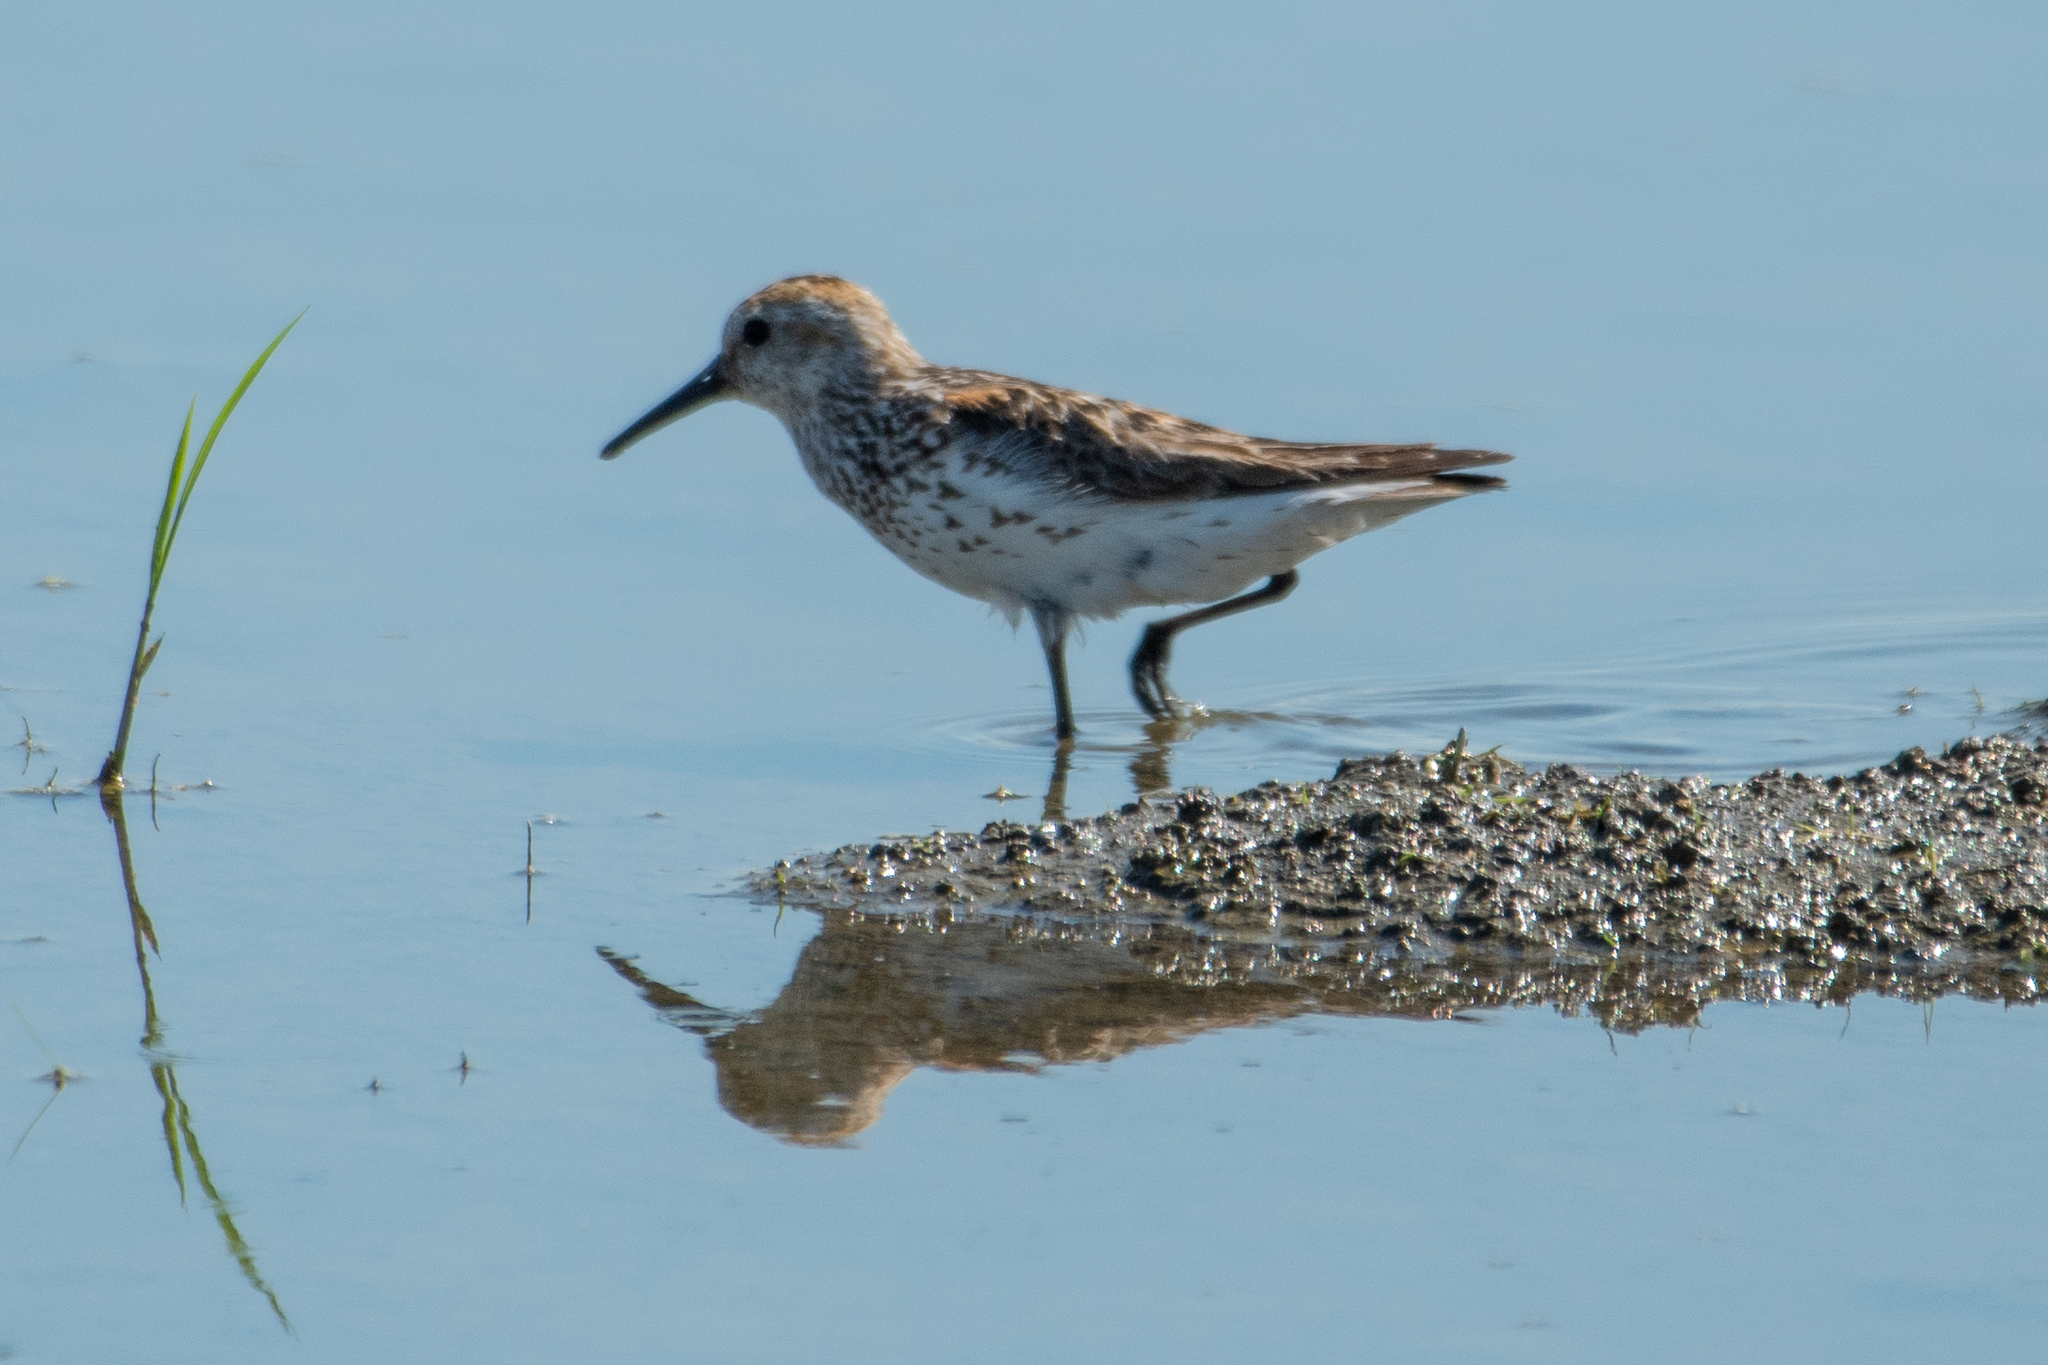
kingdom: Animalia
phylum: Chordata
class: Aves
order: Charadriiformes
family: Scolopacidae
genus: Calidris
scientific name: Calidris mauri
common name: Western sandpiper
